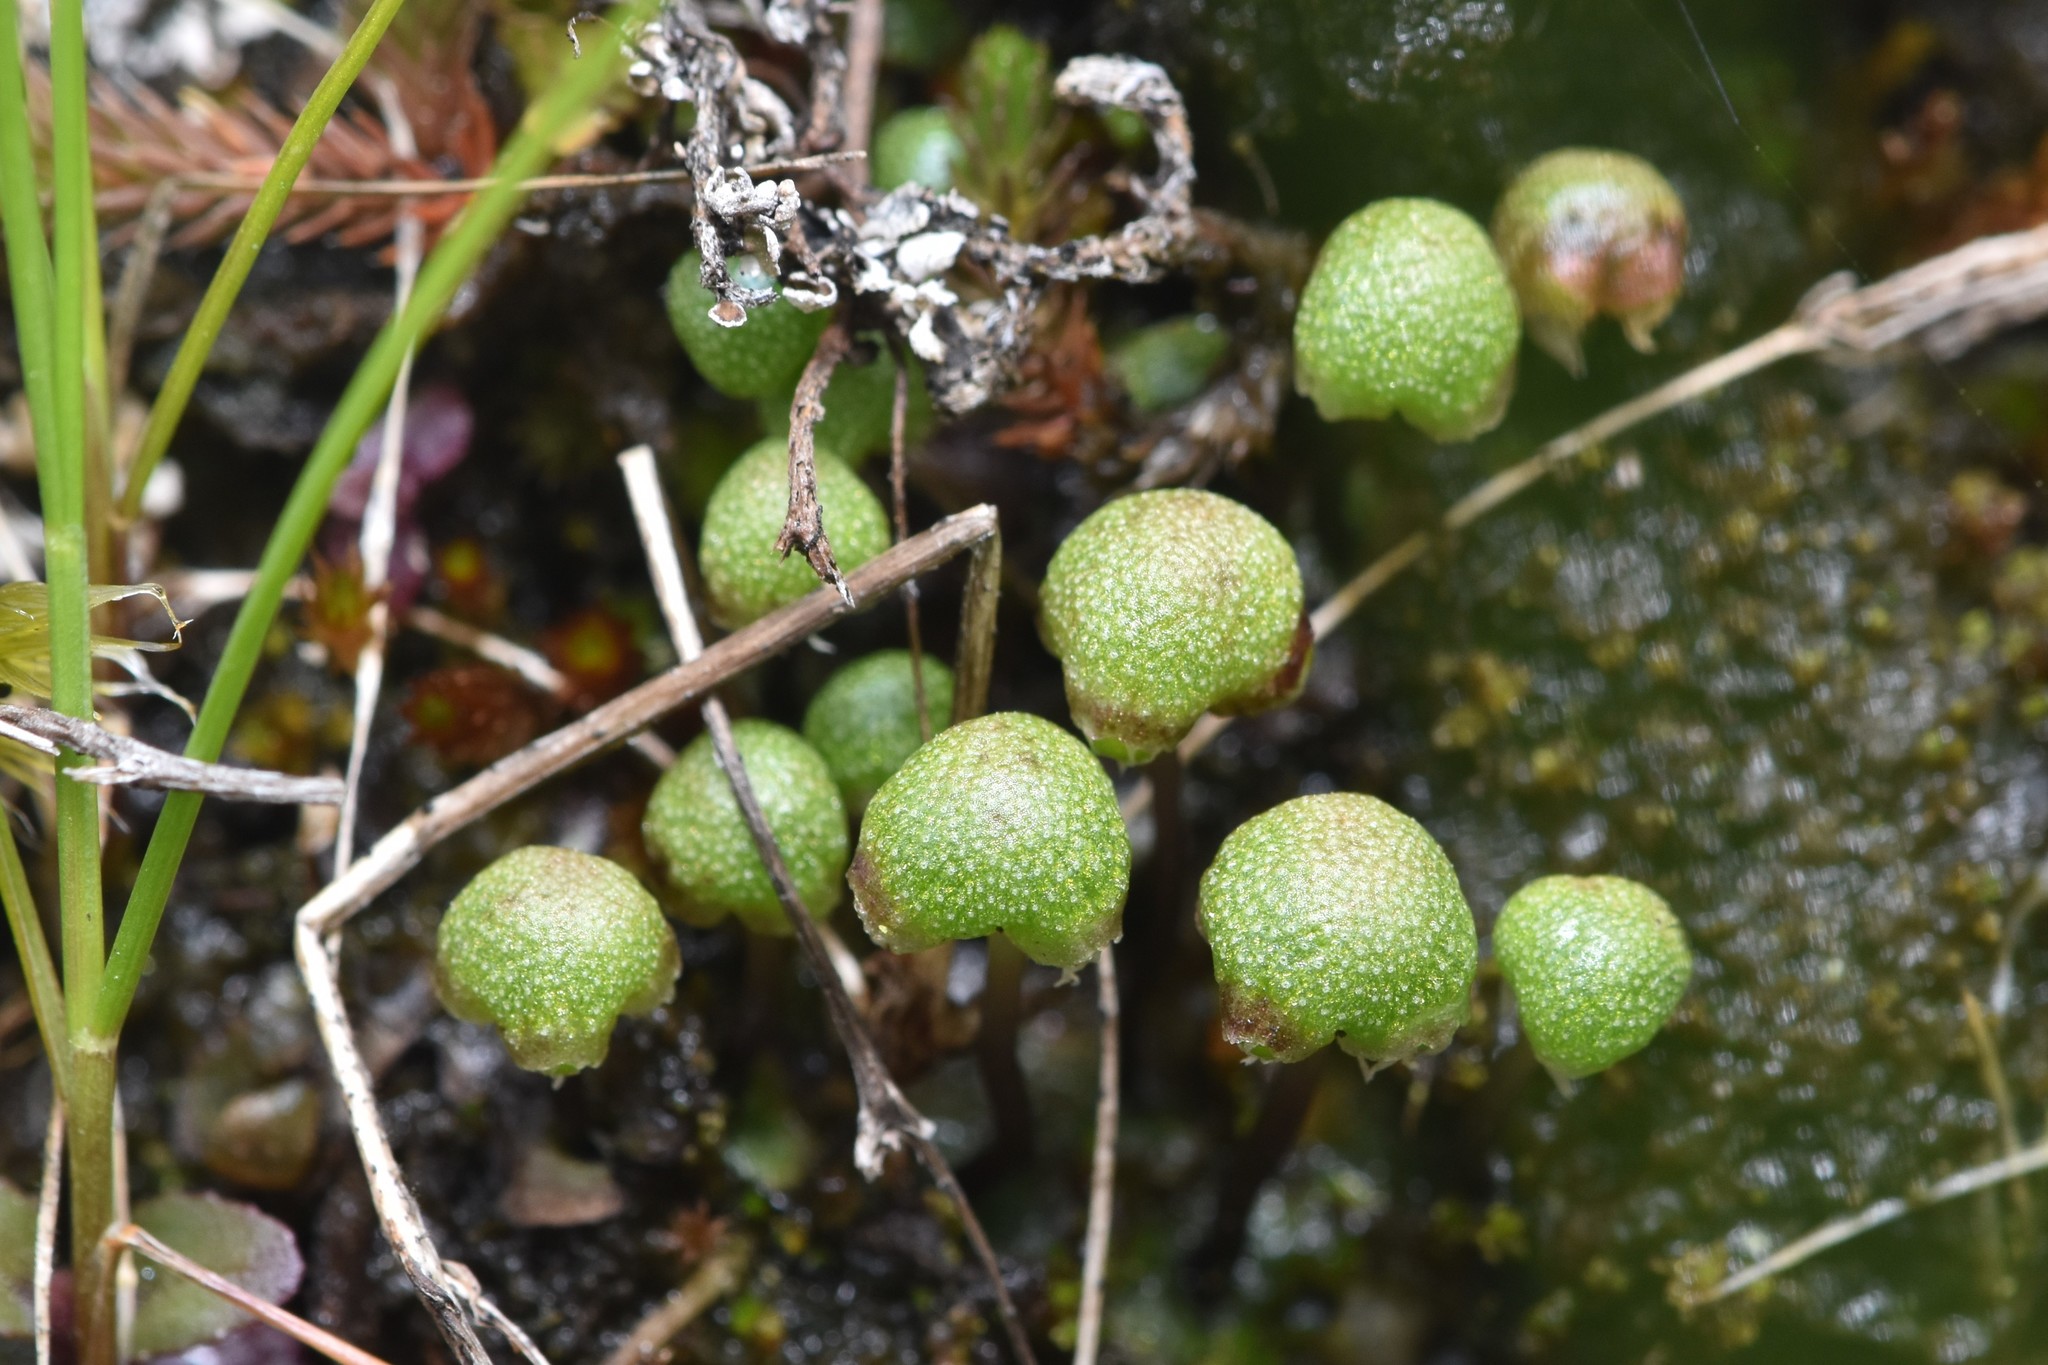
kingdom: Plantae
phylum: Marchantiophyta
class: Marchantiopsida
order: Marchantiales
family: Aytoniaceae
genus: Mannia
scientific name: Mannia gracilis
